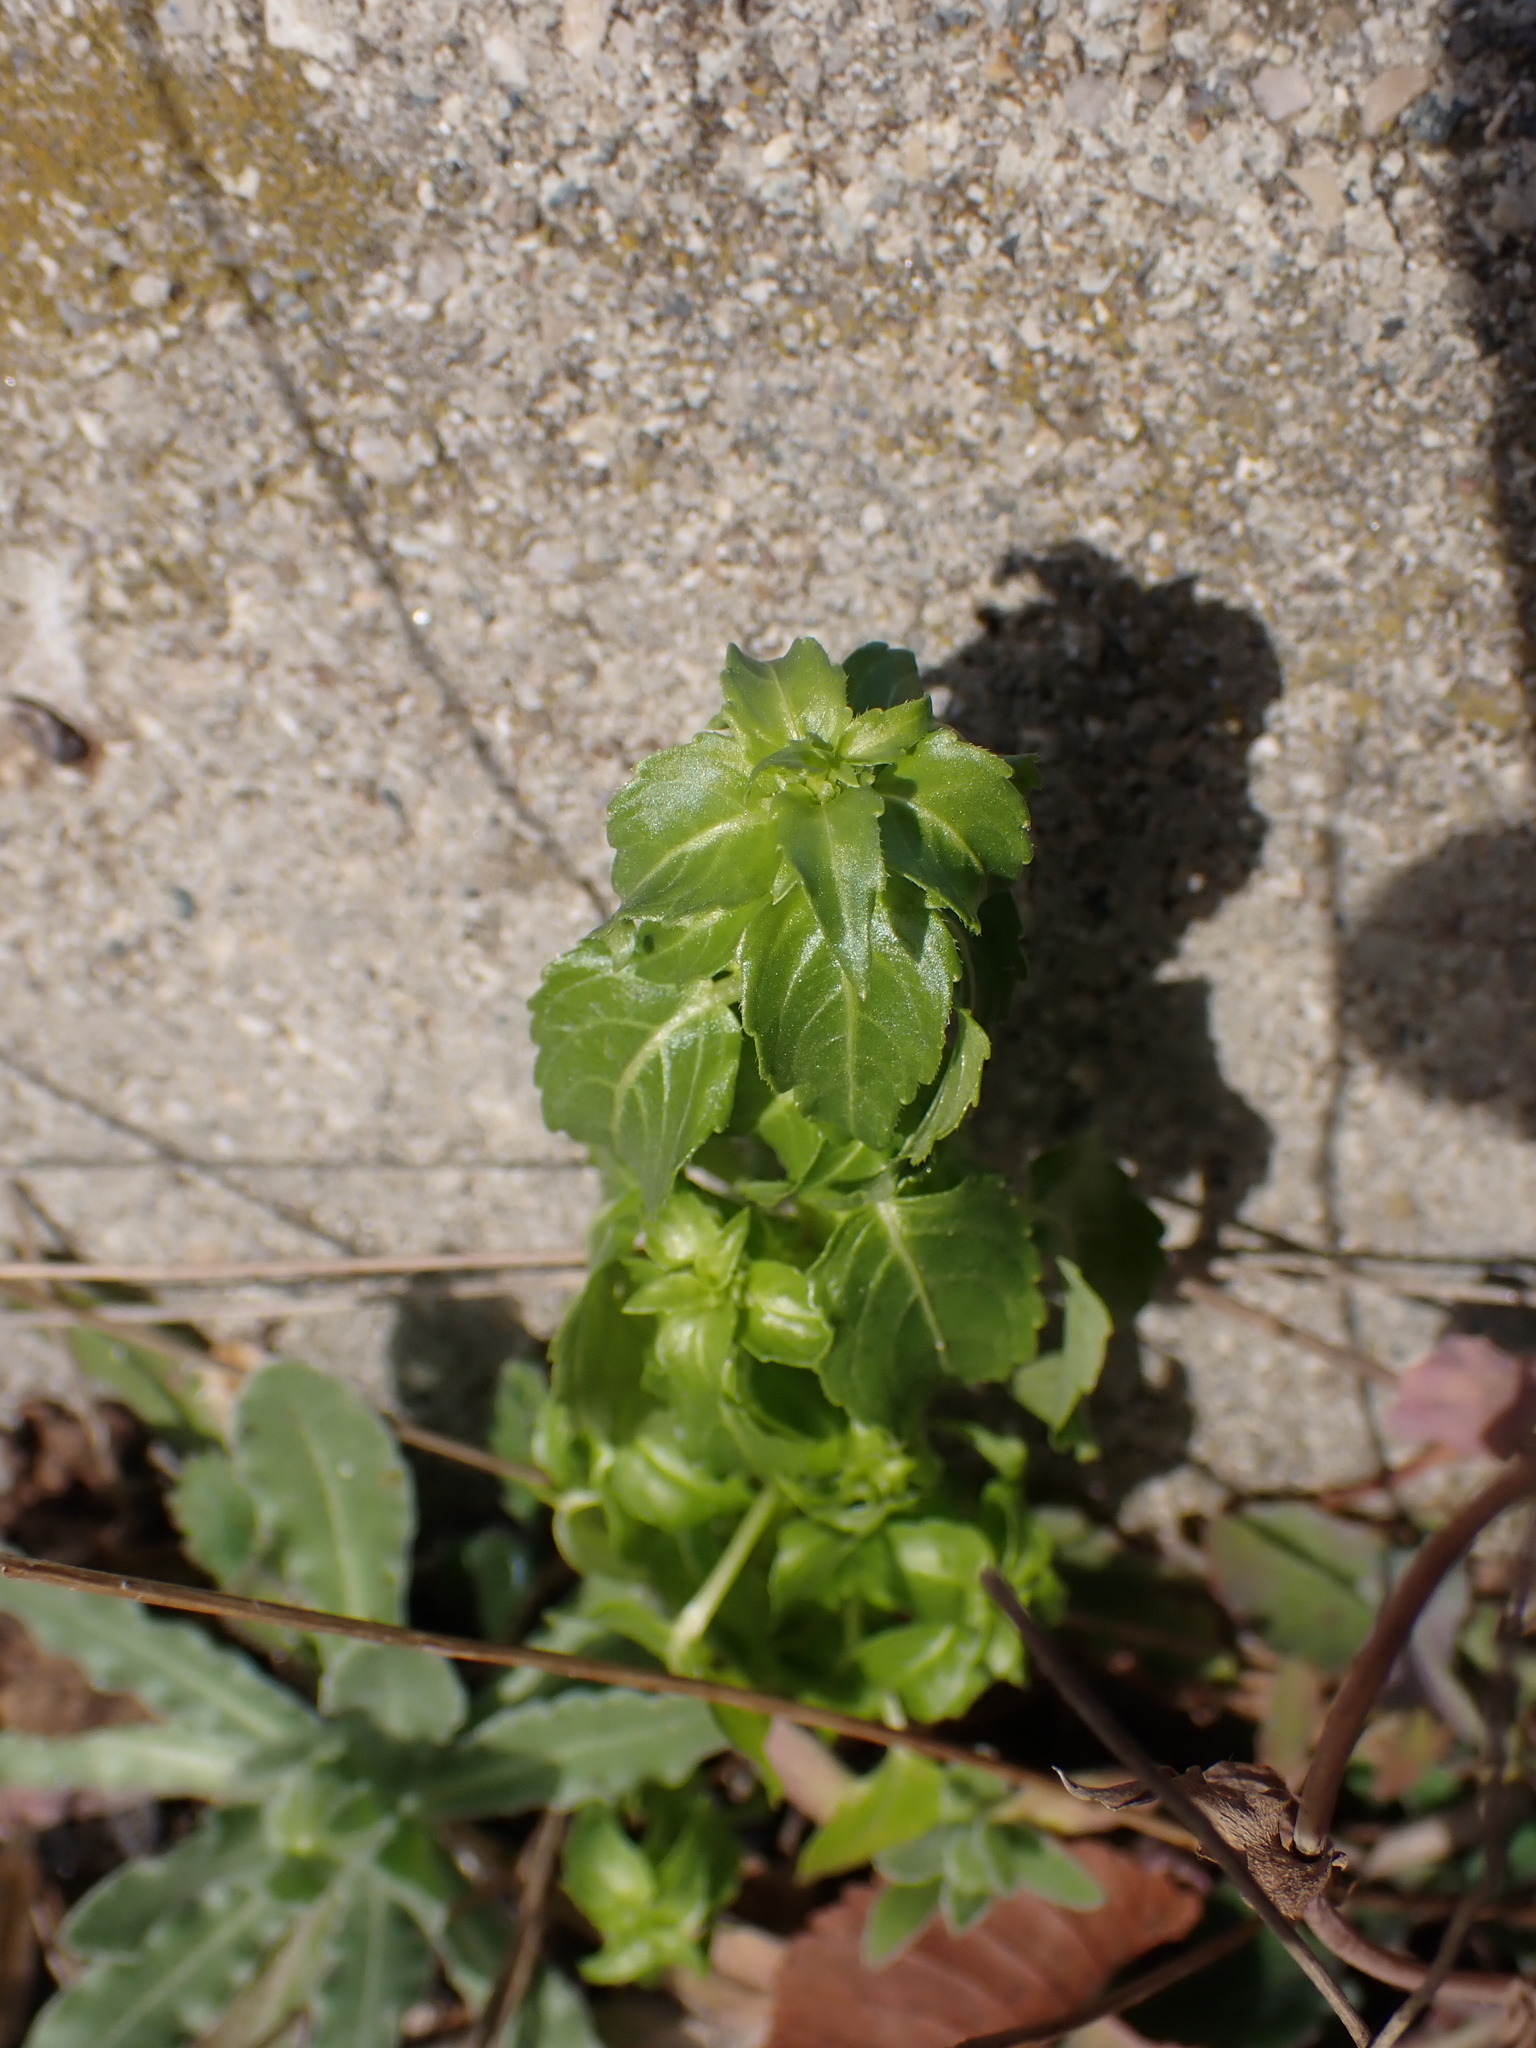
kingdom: Plantae
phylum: Tracheophyta
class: Magnoliopsida
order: Malpighiales
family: Euphorbiaceae
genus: Mercurialis
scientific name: Mercurialis annua
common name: Annual mercury
